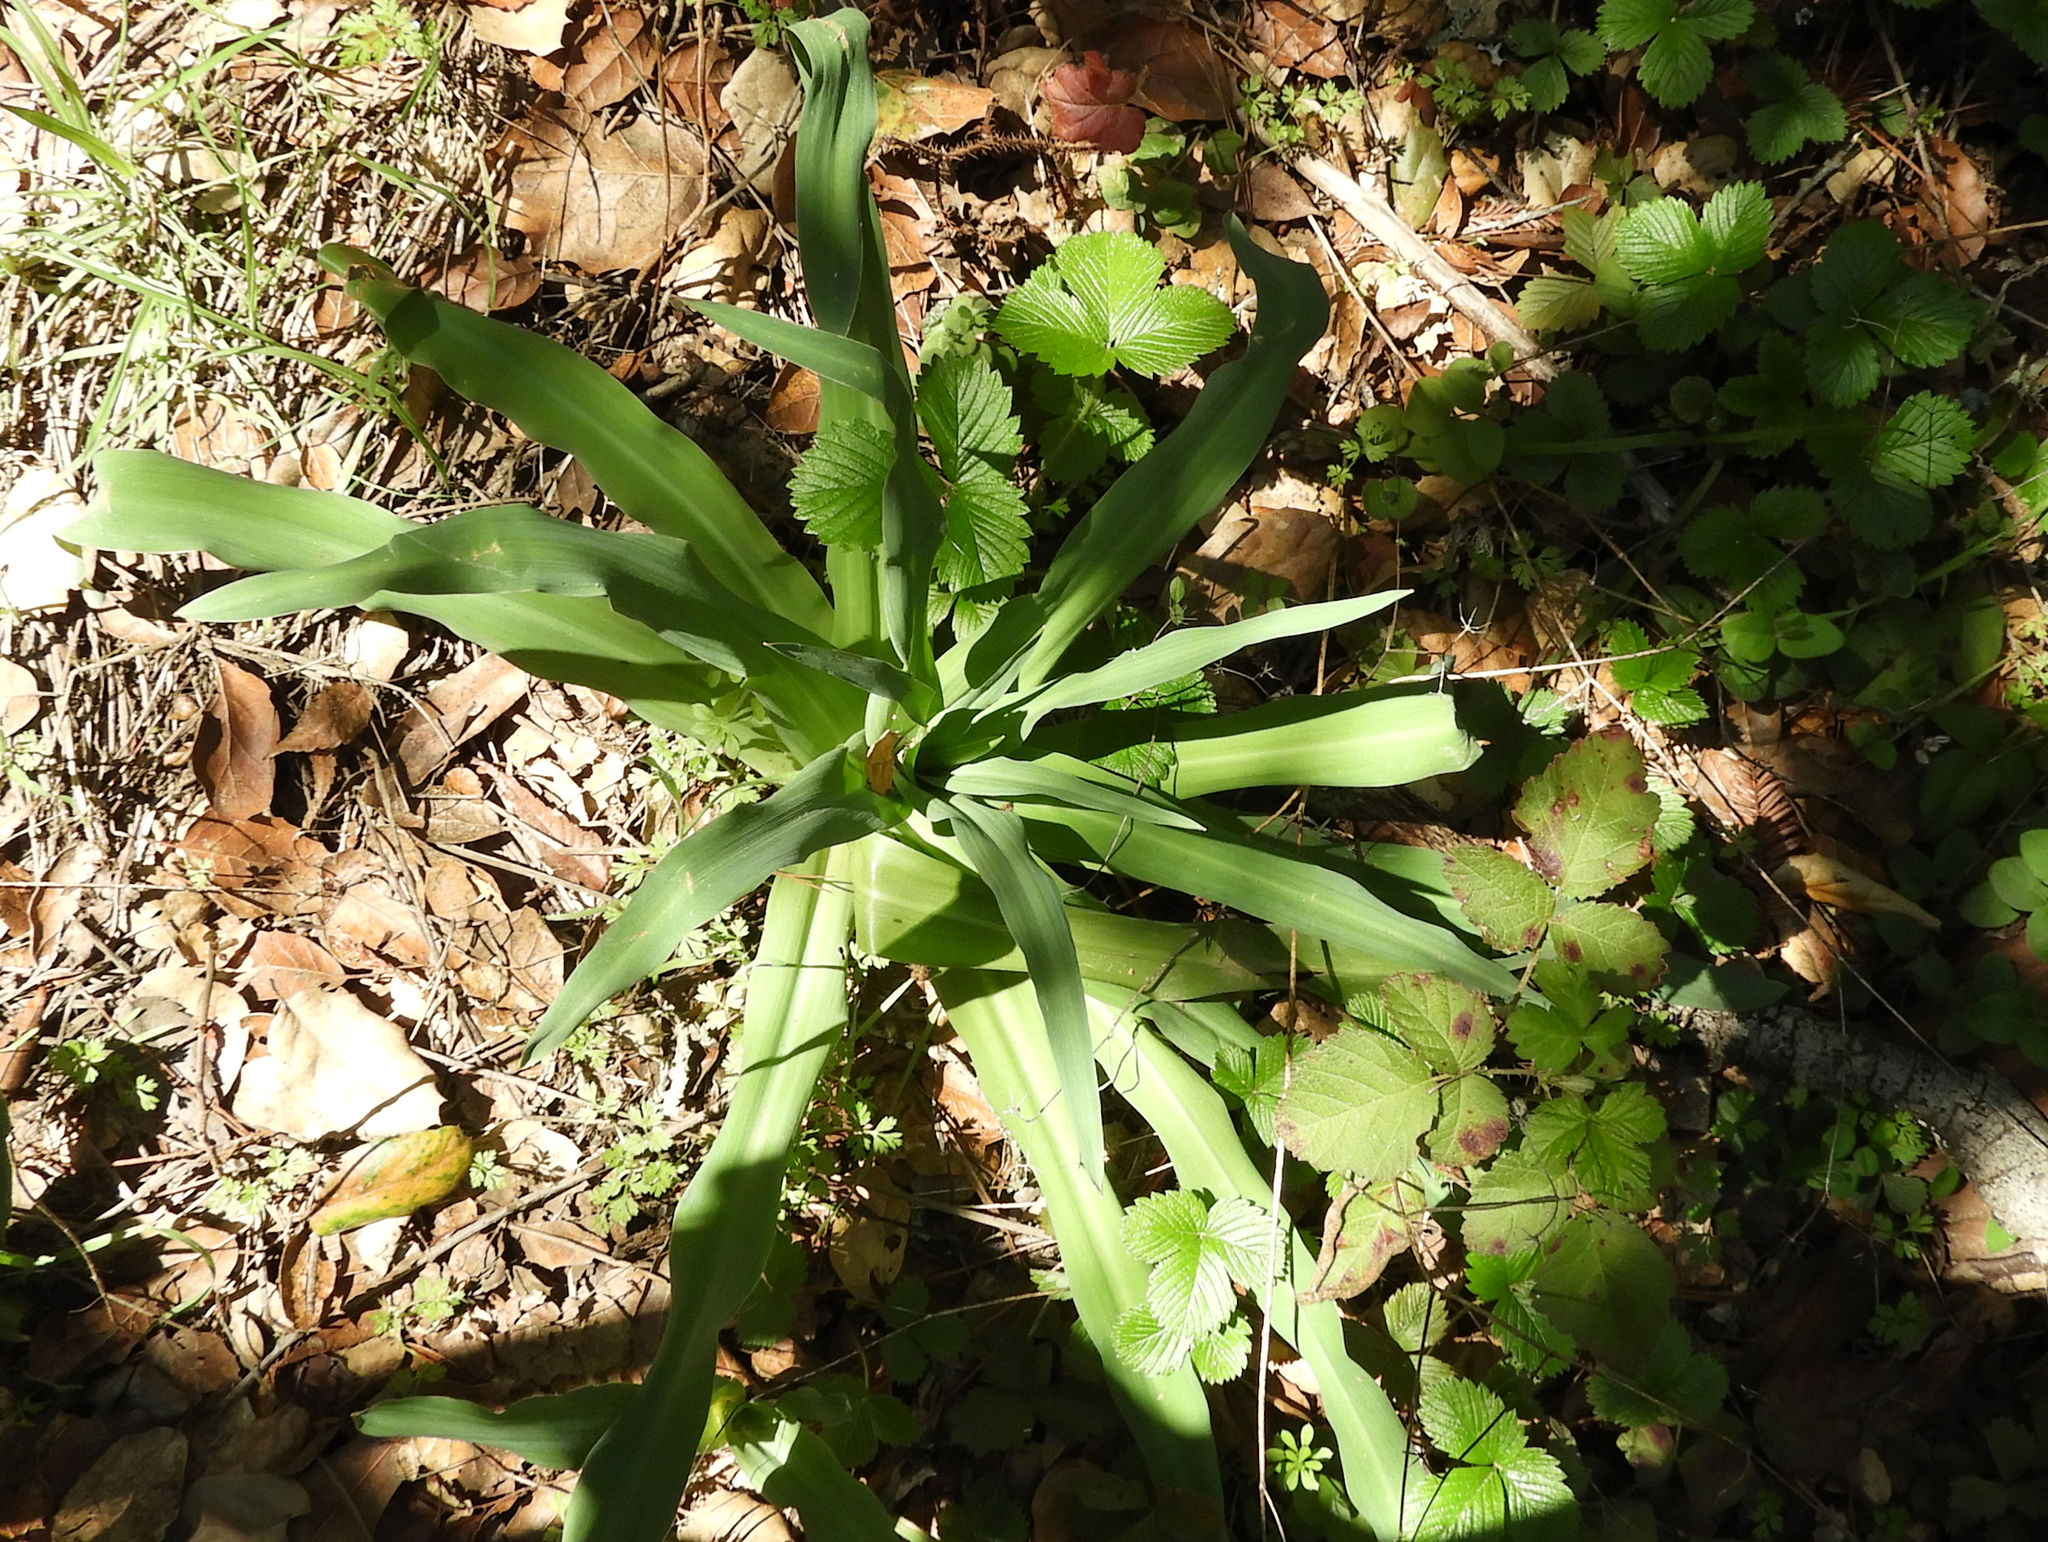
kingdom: Plantae
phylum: Tracheophyta
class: Liliopsida
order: Asparagales
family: Asparagaceae
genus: Chlorogalum
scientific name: Chlorogalum pomeridianum
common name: Amole
